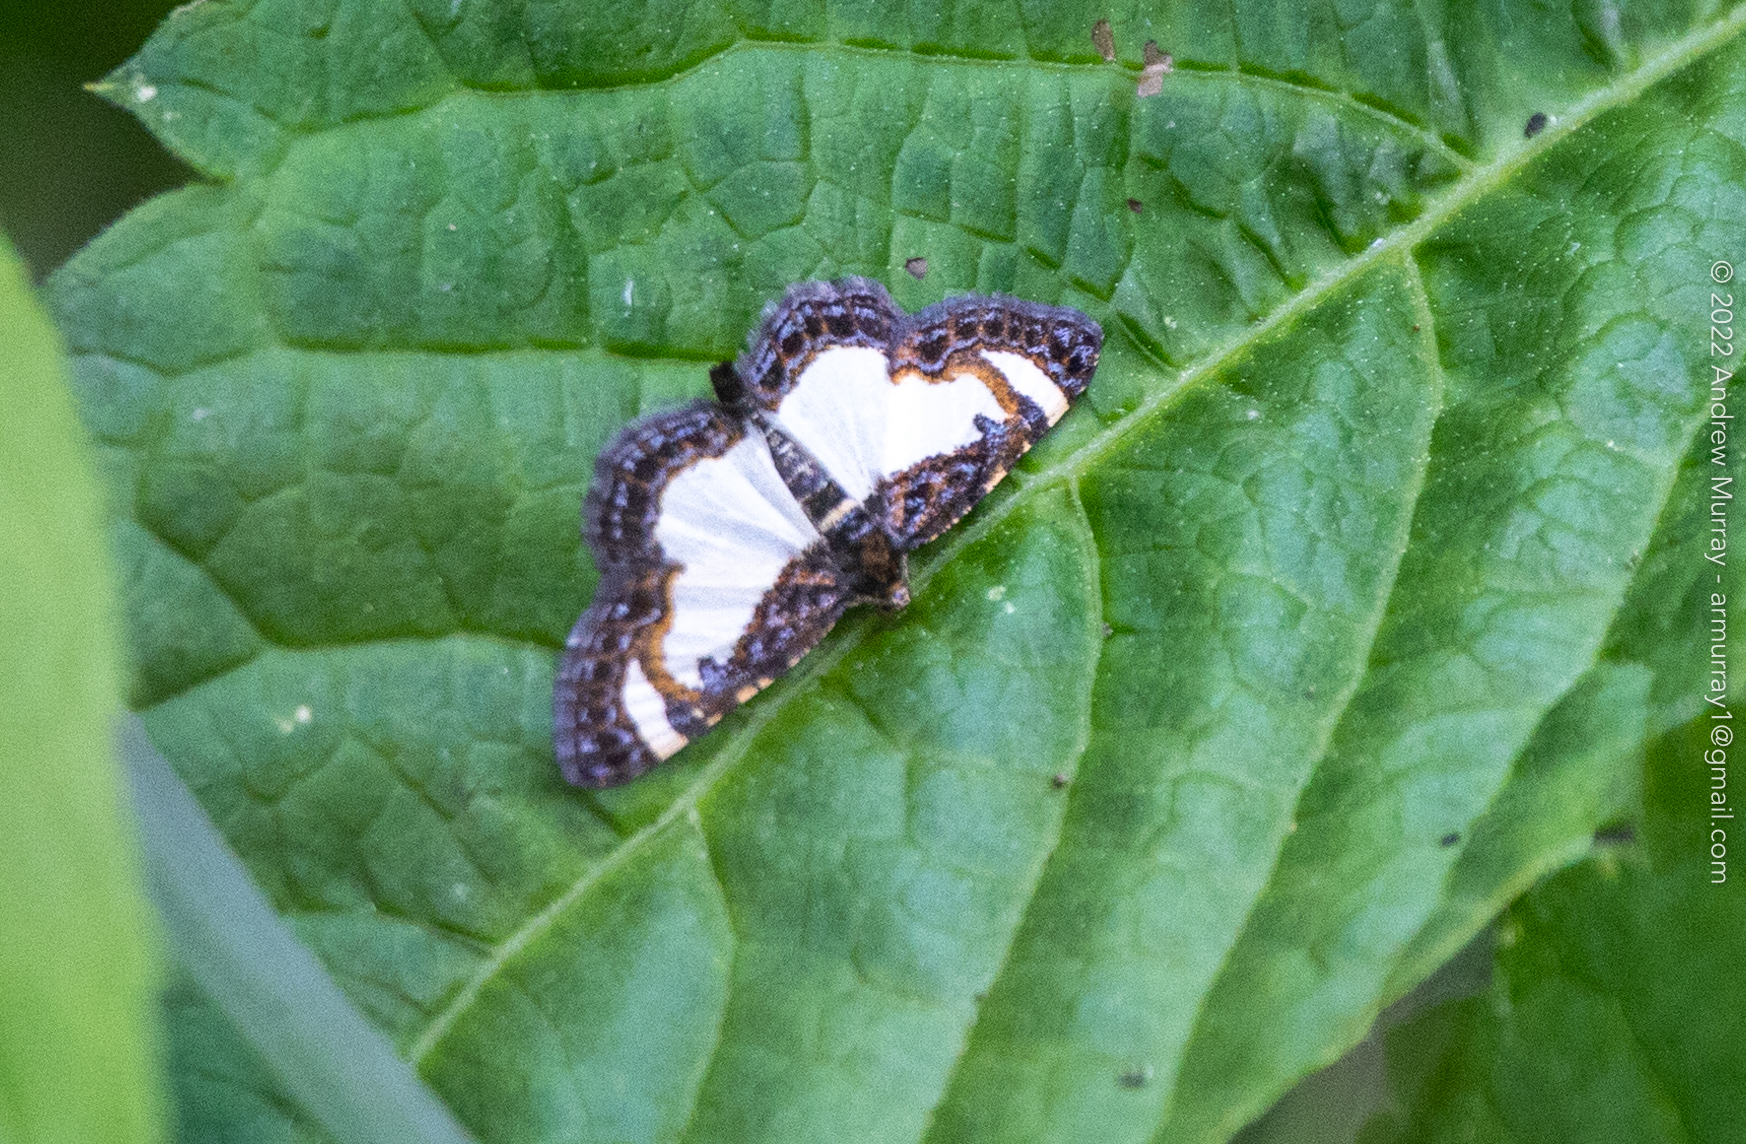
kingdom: Animalia
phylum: Arthropoda
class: Insecta
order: Lepidoptera
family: Geometridae
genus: Heliomata
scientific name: Heliomata cycladata
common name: Common spring moth
